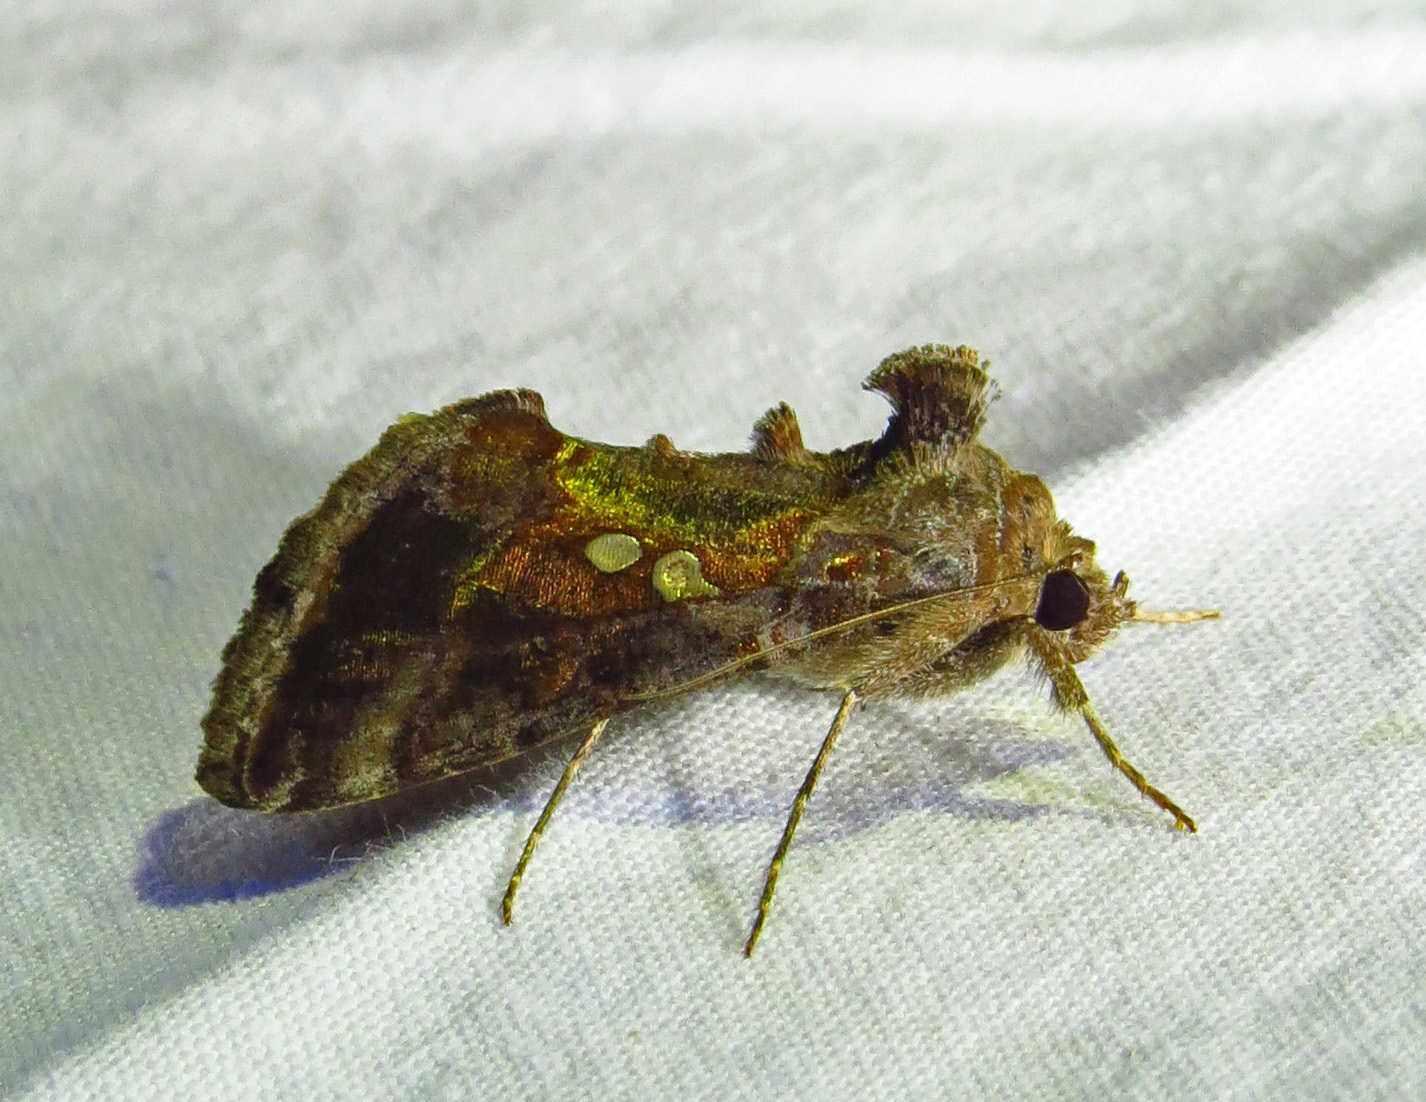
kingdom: Animalia
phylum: Arthropoda
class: Insecta
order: Lepidoptera
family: Noctuidae
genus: Chrysodeixis
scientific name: Chrysodeixis includens
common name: Cutworm moth
